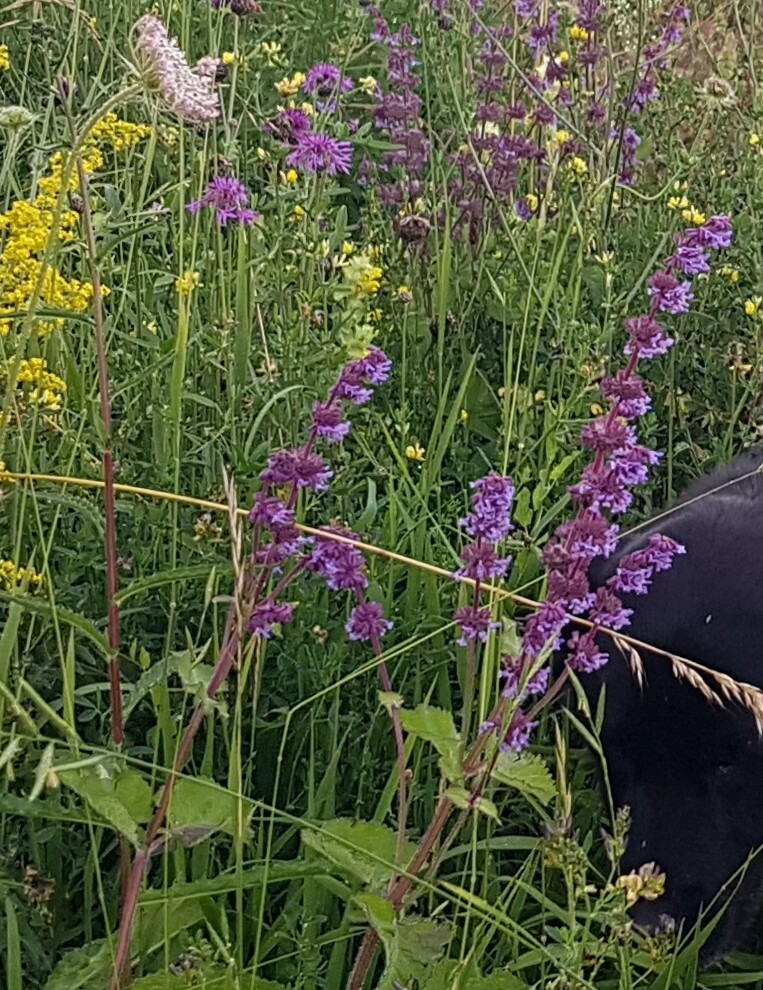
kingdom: Plantae
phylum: Tracheophyta
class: Magnoliopsida
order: Lamiales
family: Lamiaceae
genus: Salvia
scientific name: Salvia verticillata
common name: Whorled clary
